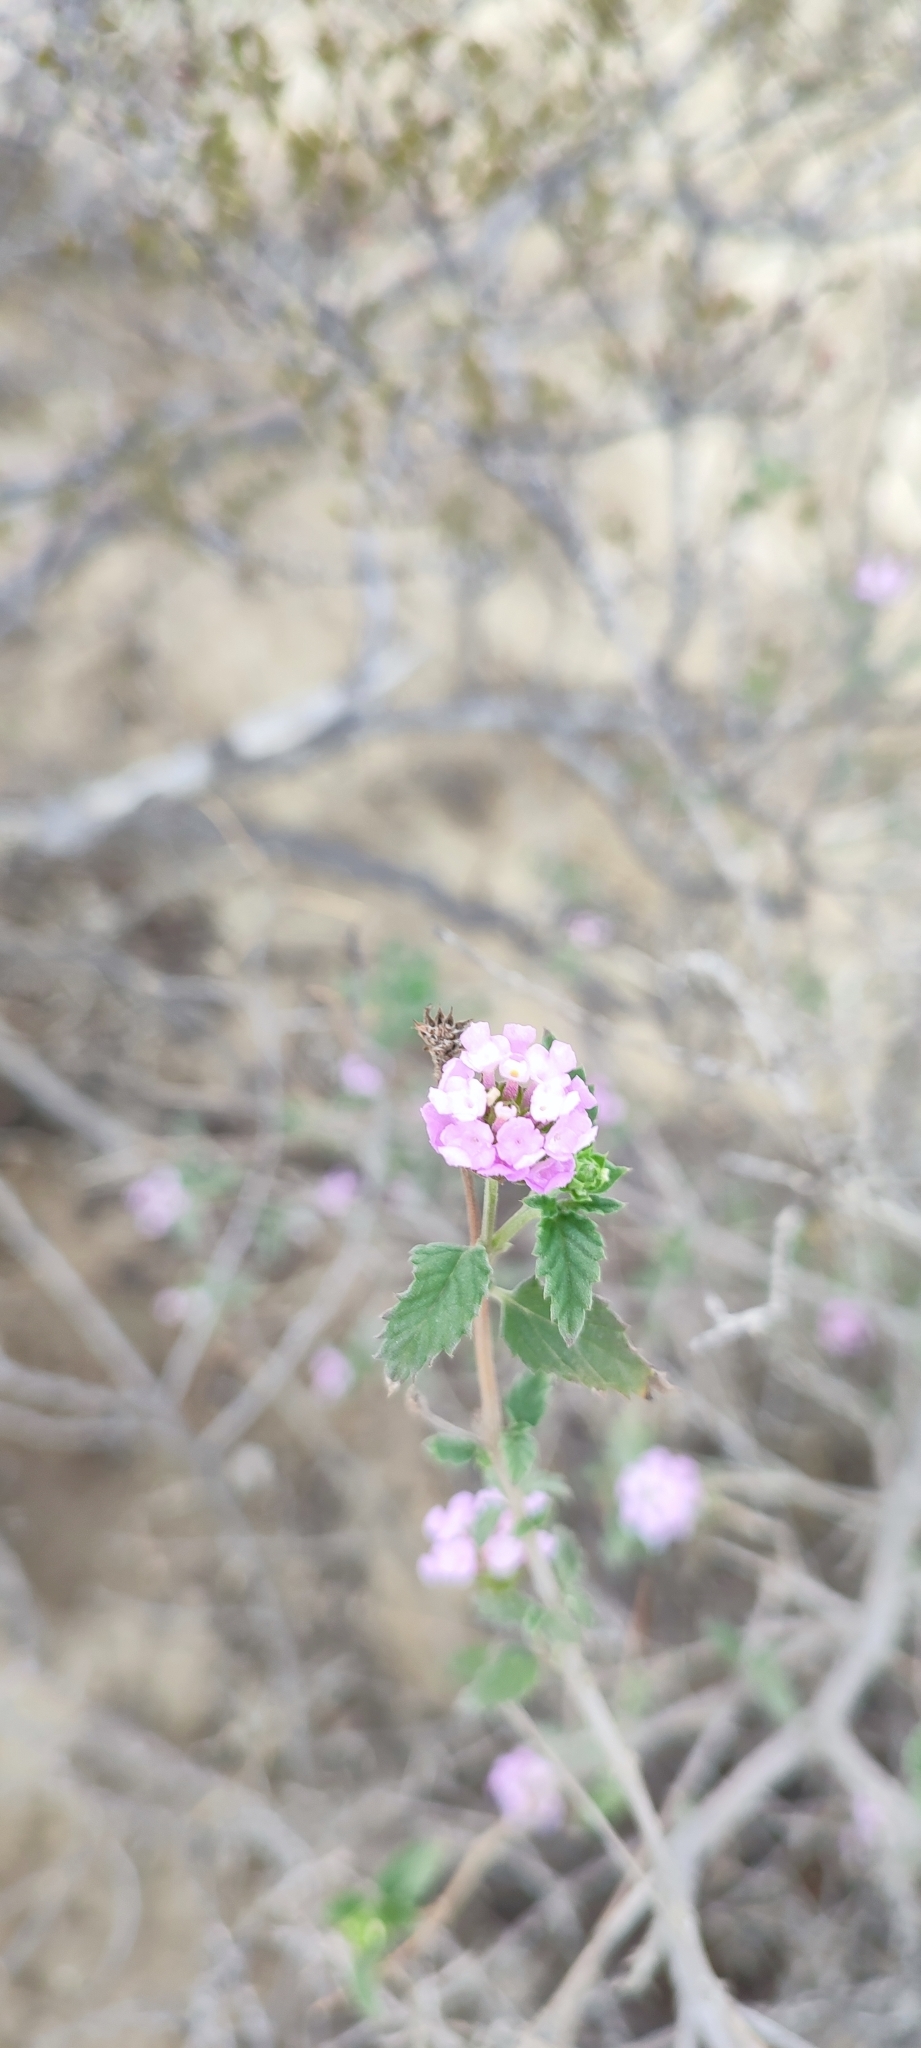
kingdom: Plantae
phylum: Tracheophyta
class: Magnoliopsida
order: Lamiales
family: Verbenaceae
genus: Lantana
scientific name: Lantana achyranthifolia
